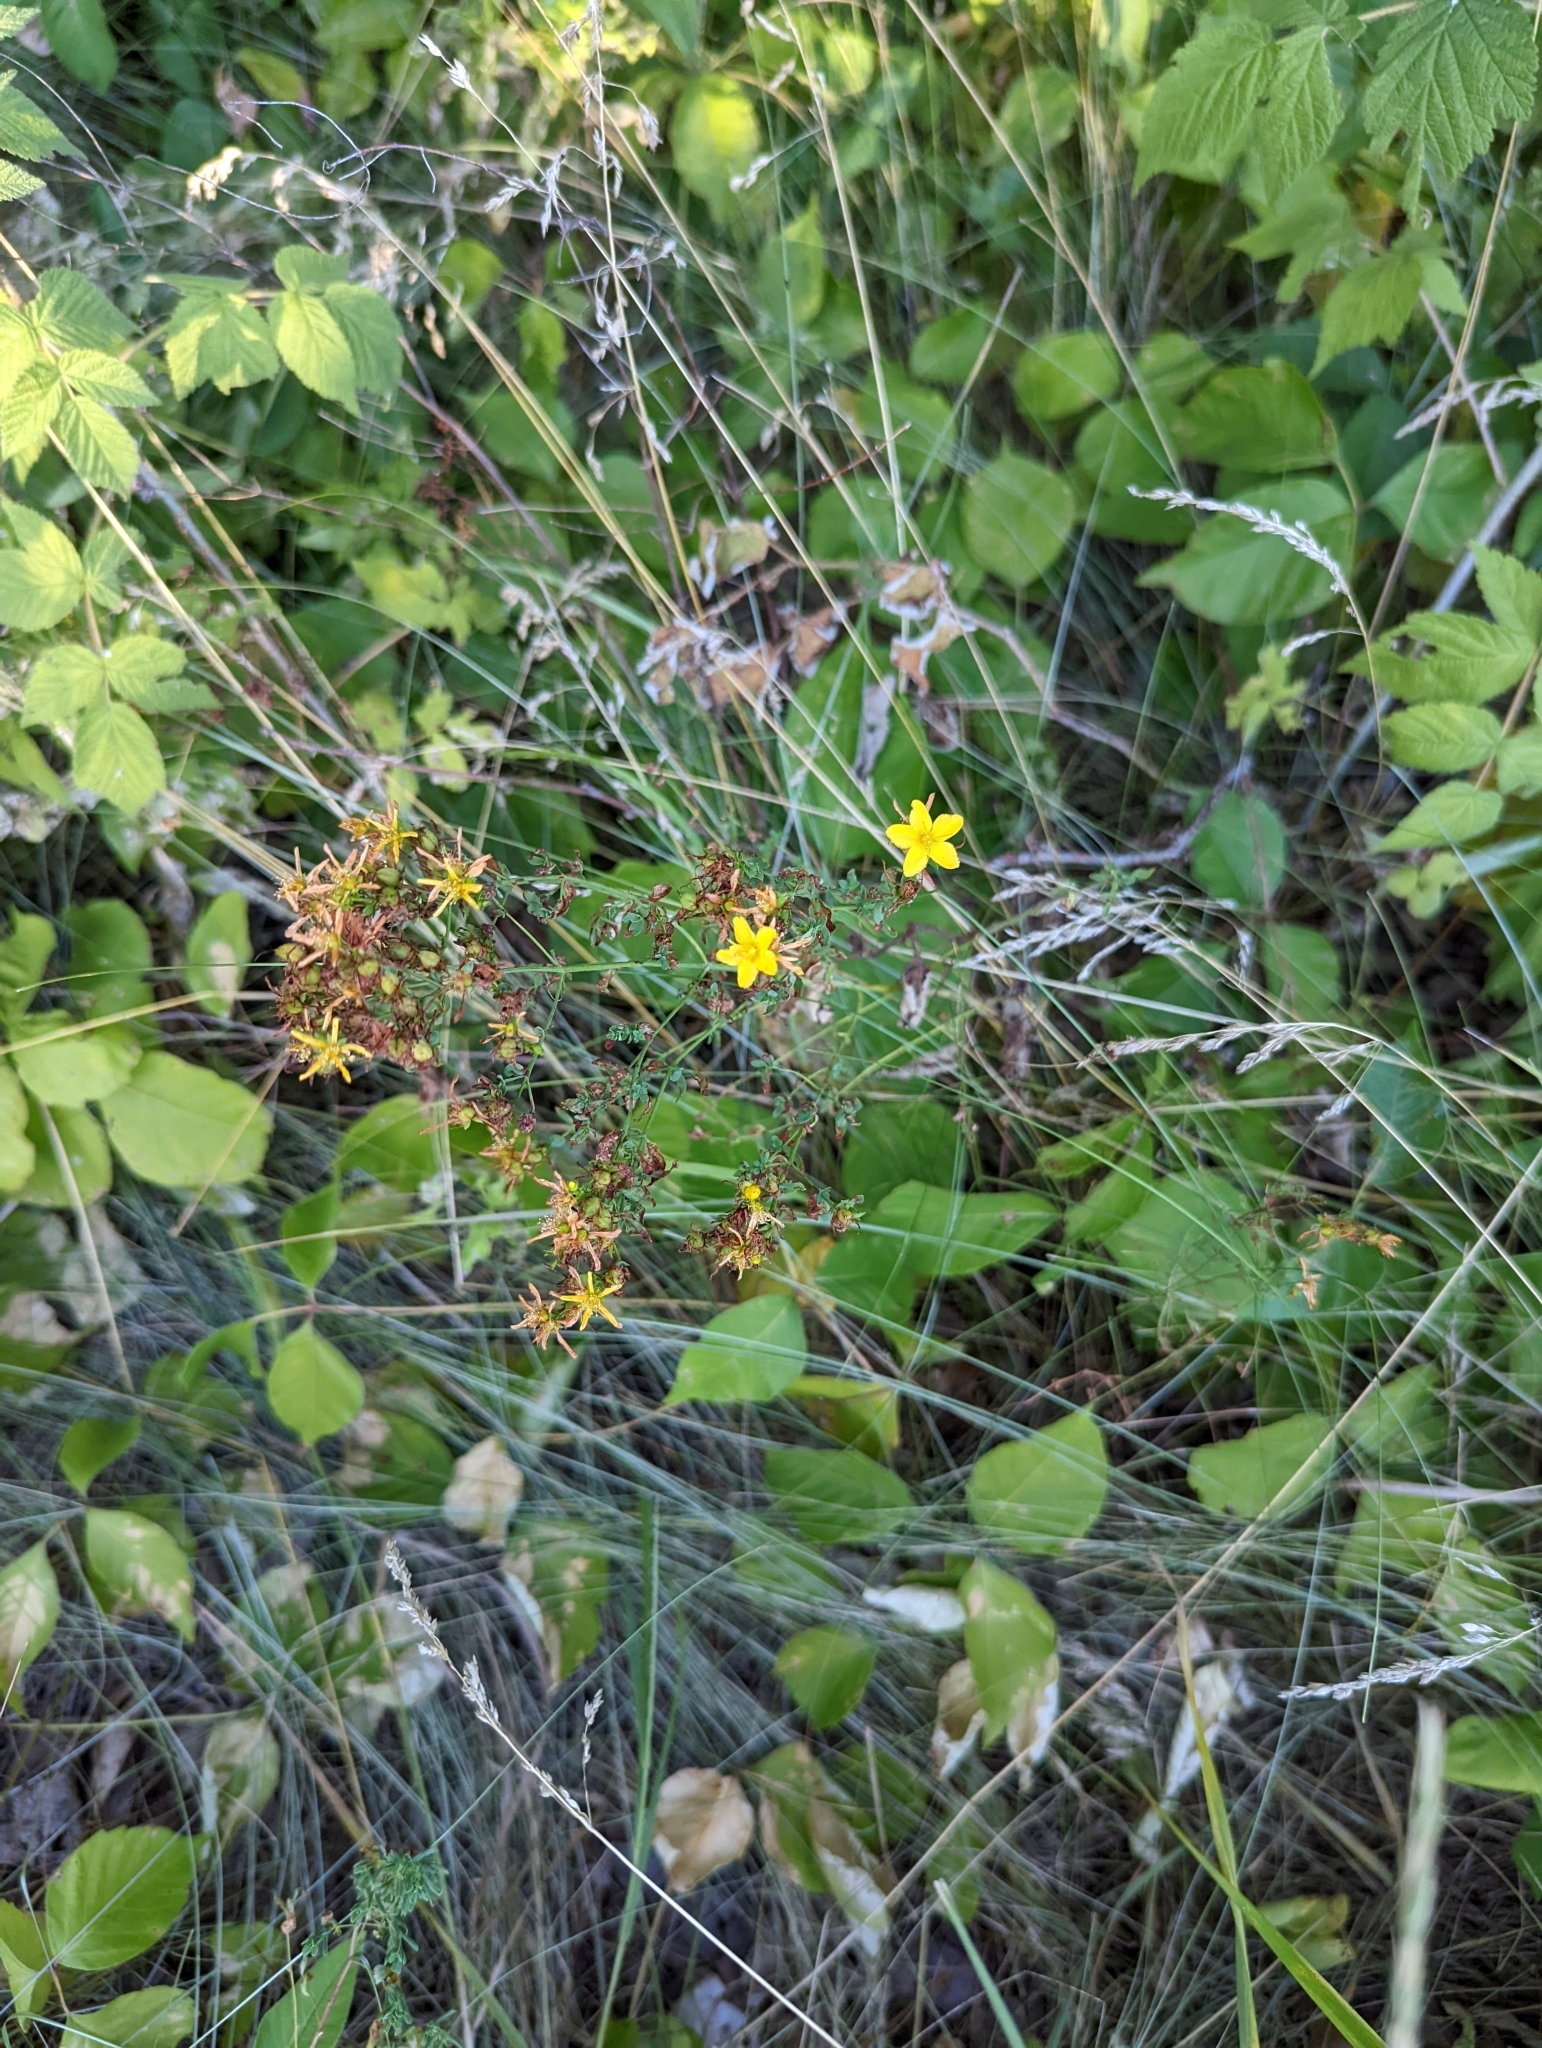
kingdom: Plantae
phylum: Tracheophyta
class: Magnoliopsida
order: Malpighiales
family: Hypericaceae
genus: Hypericum
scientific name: Hypericum perforatum
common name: Common st. johnswort
